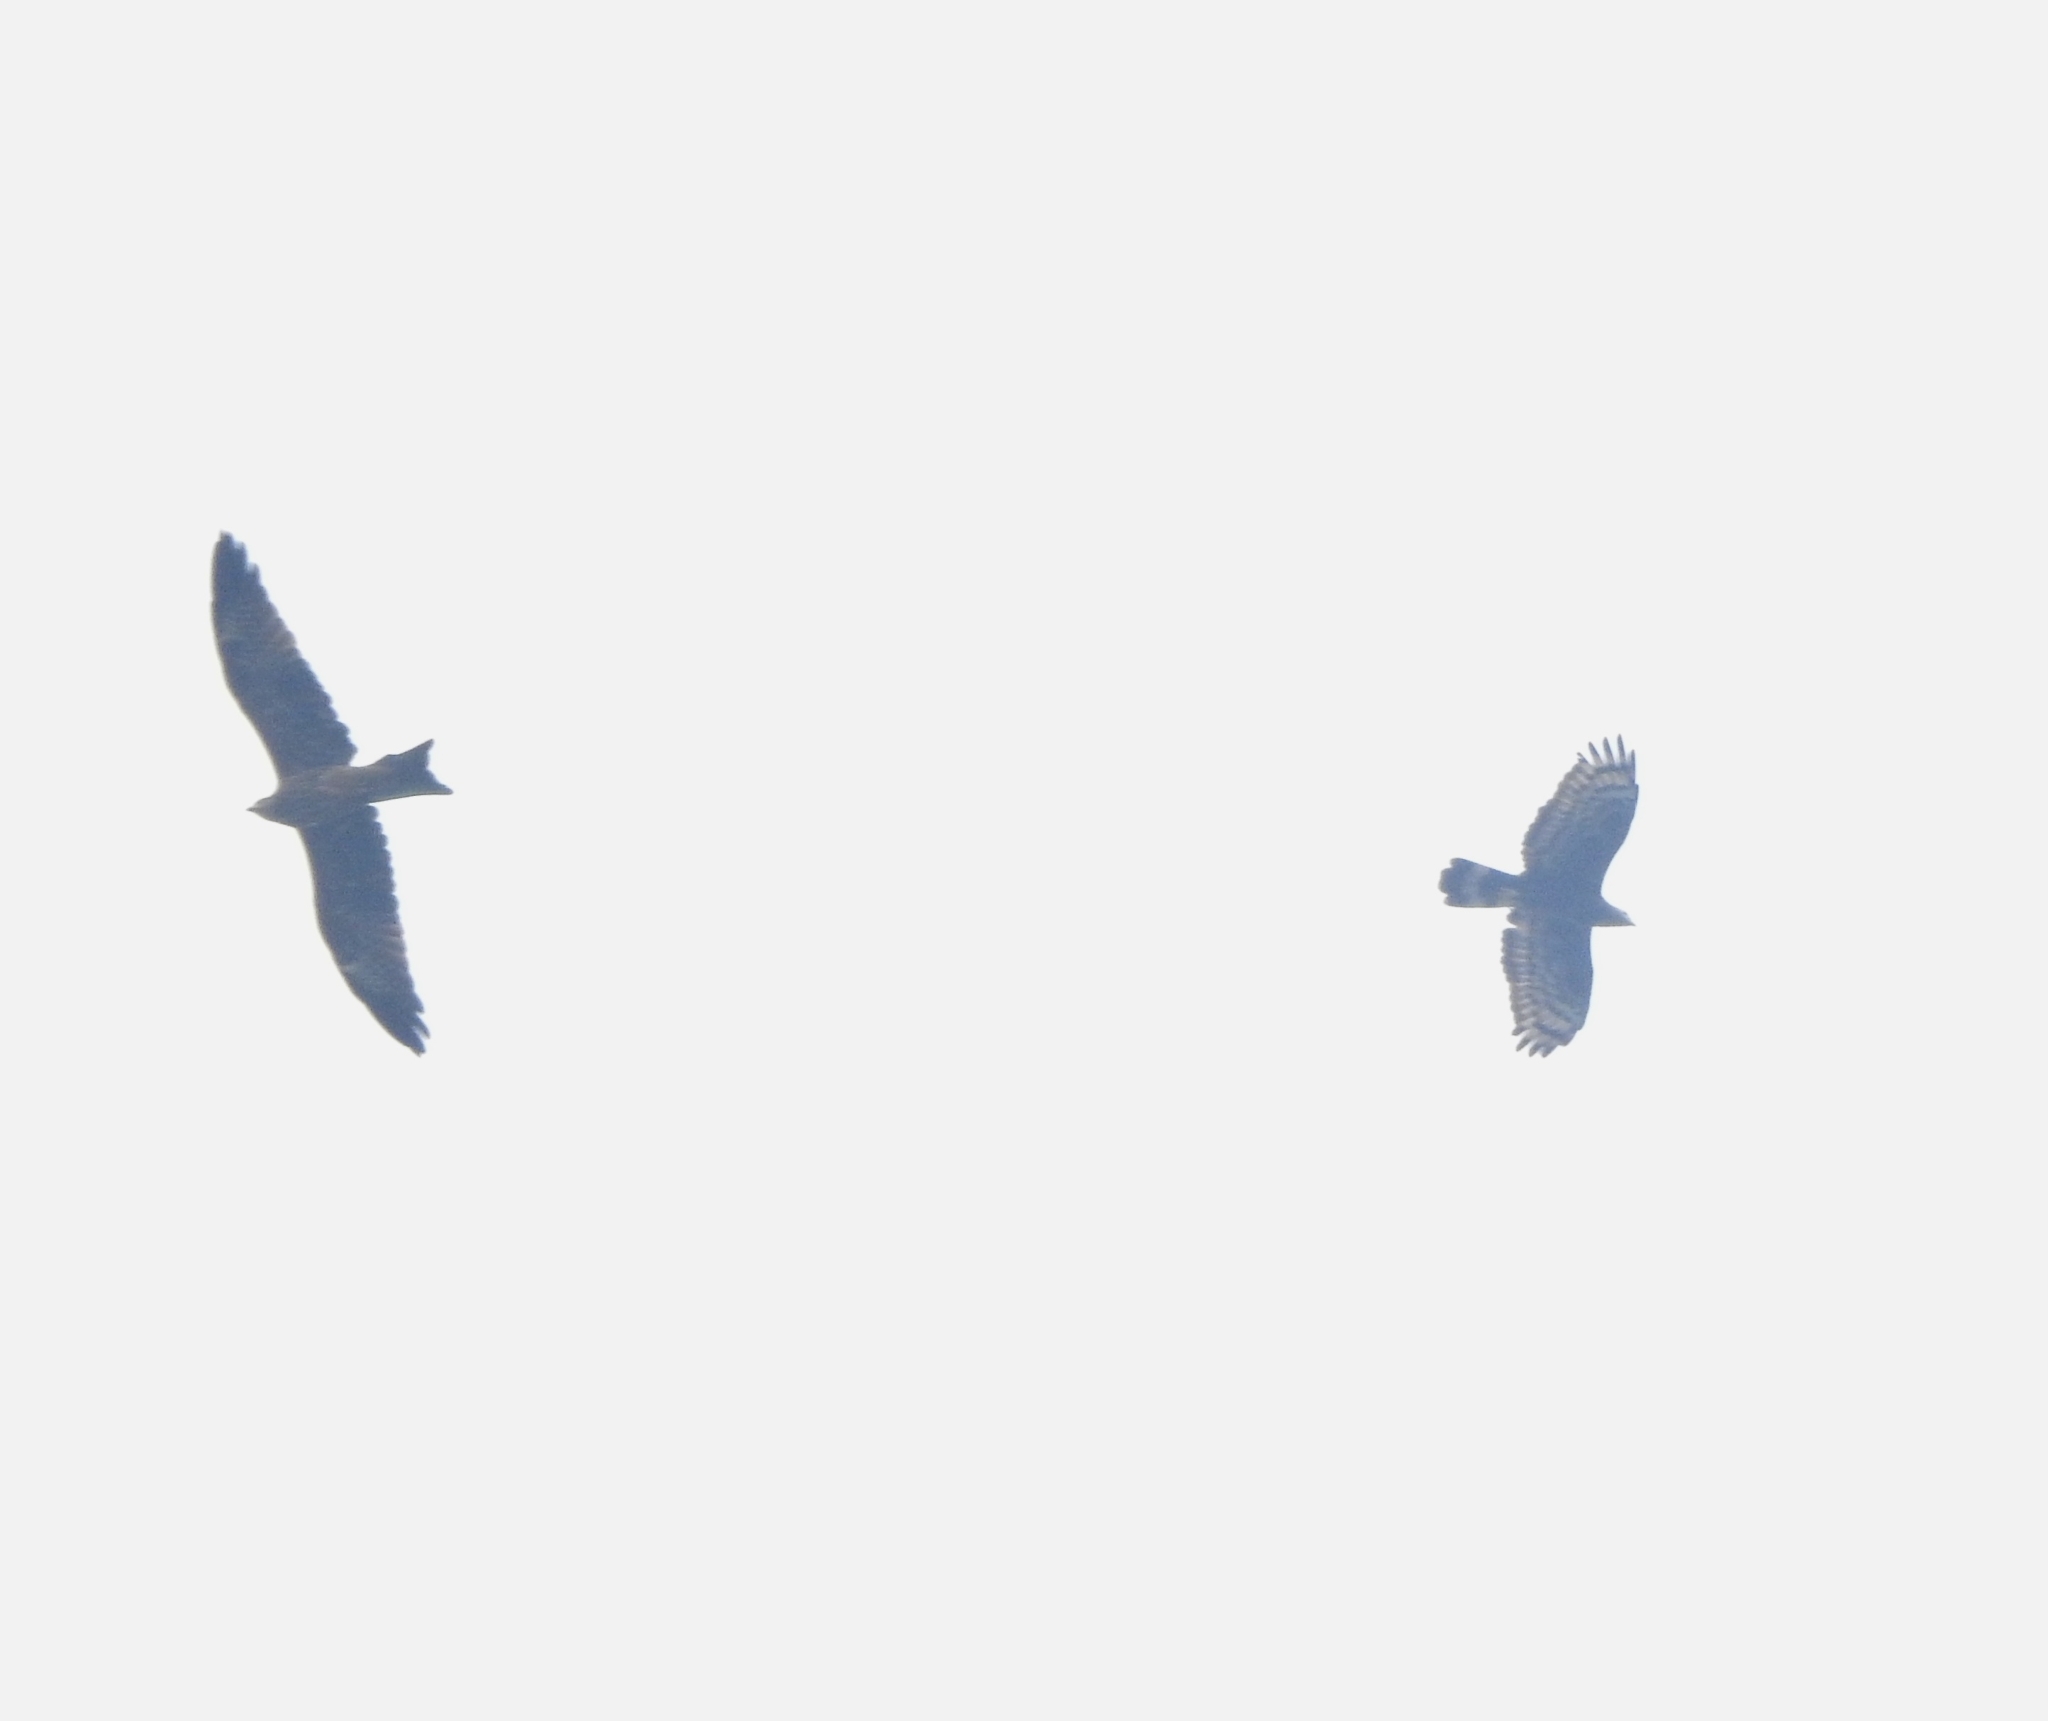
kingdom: Animalia
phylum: Chordata
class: Aves
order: Accipitriformes
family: Accipitridae
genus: Milvus
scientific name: Milvus migrans
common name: Black kite
